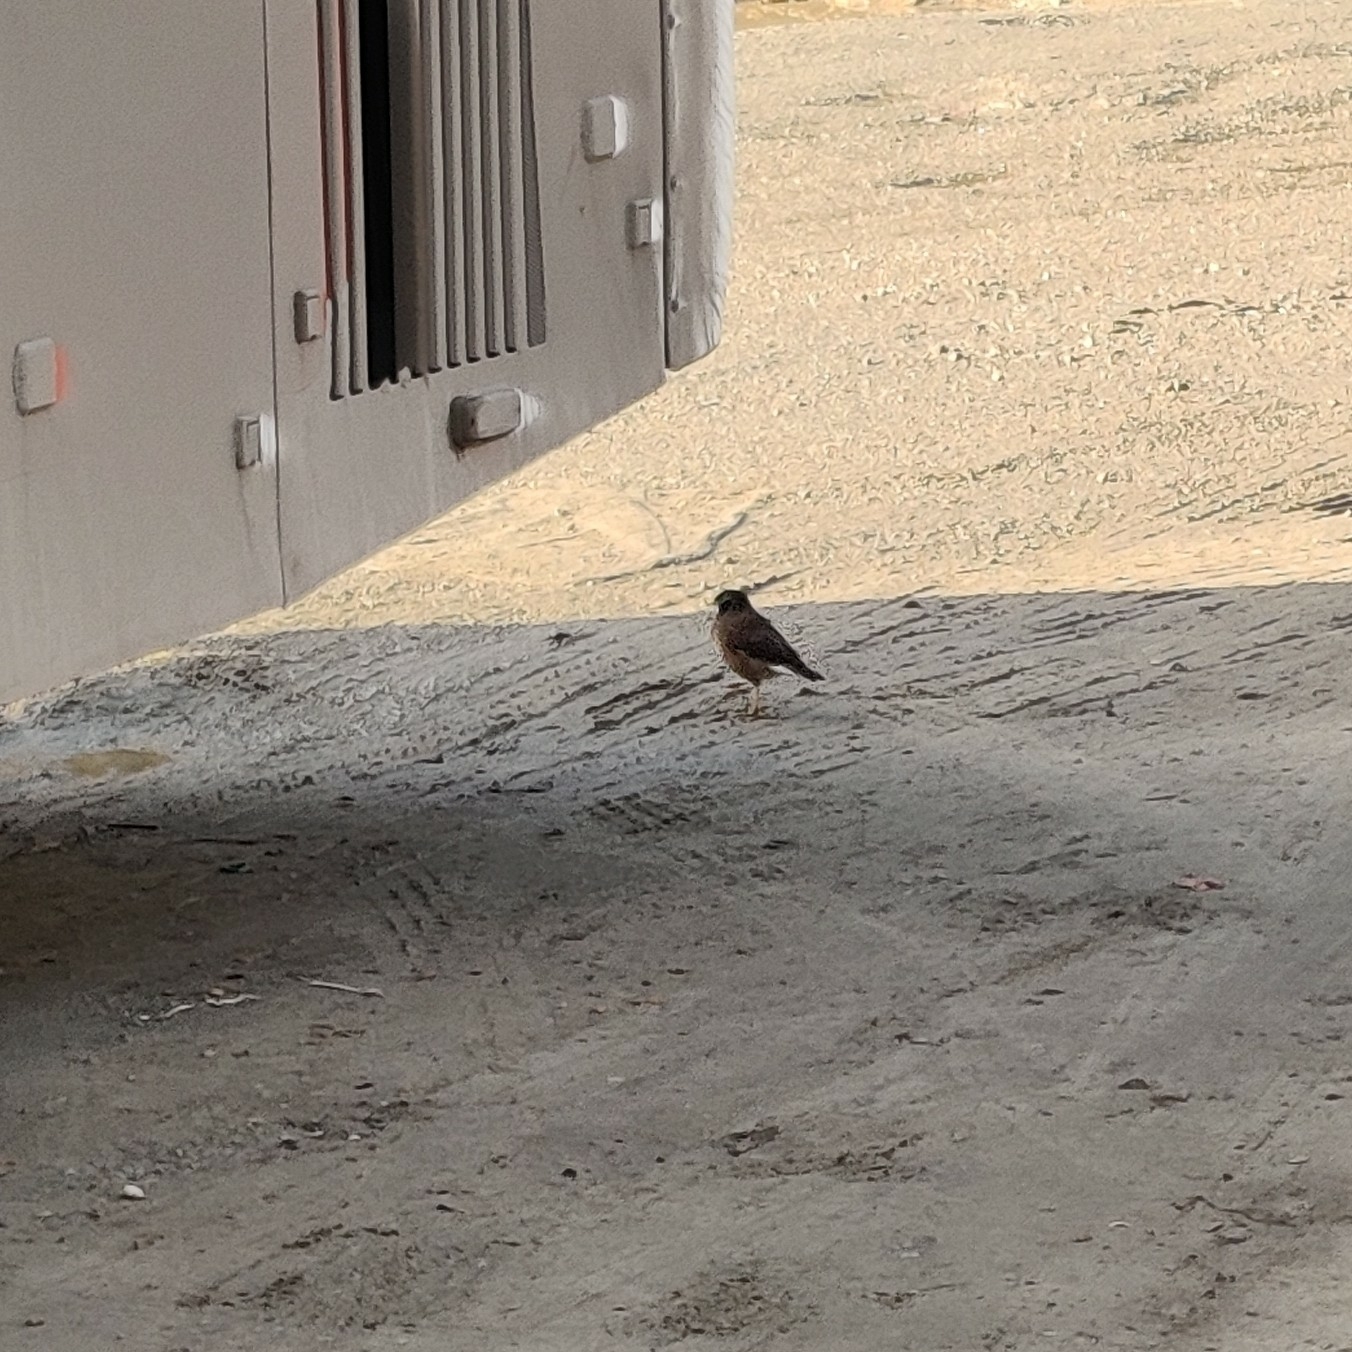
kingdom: Animalia
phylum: Chordata
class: Aves
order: Passeriformes
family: Sturnidae
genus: Acridotheres
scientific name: Acridotheres tristis
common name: Common myna
